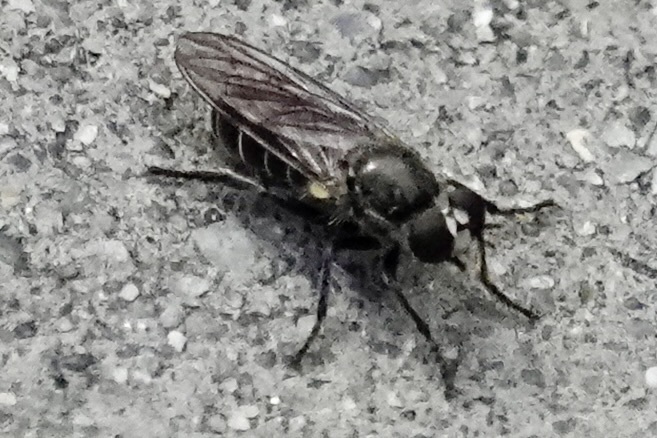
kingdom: Animalia
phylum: Arthropoda
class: Insecta
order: Diptera
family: Asilidae
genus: Atomosia
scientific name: Atomosia puella
